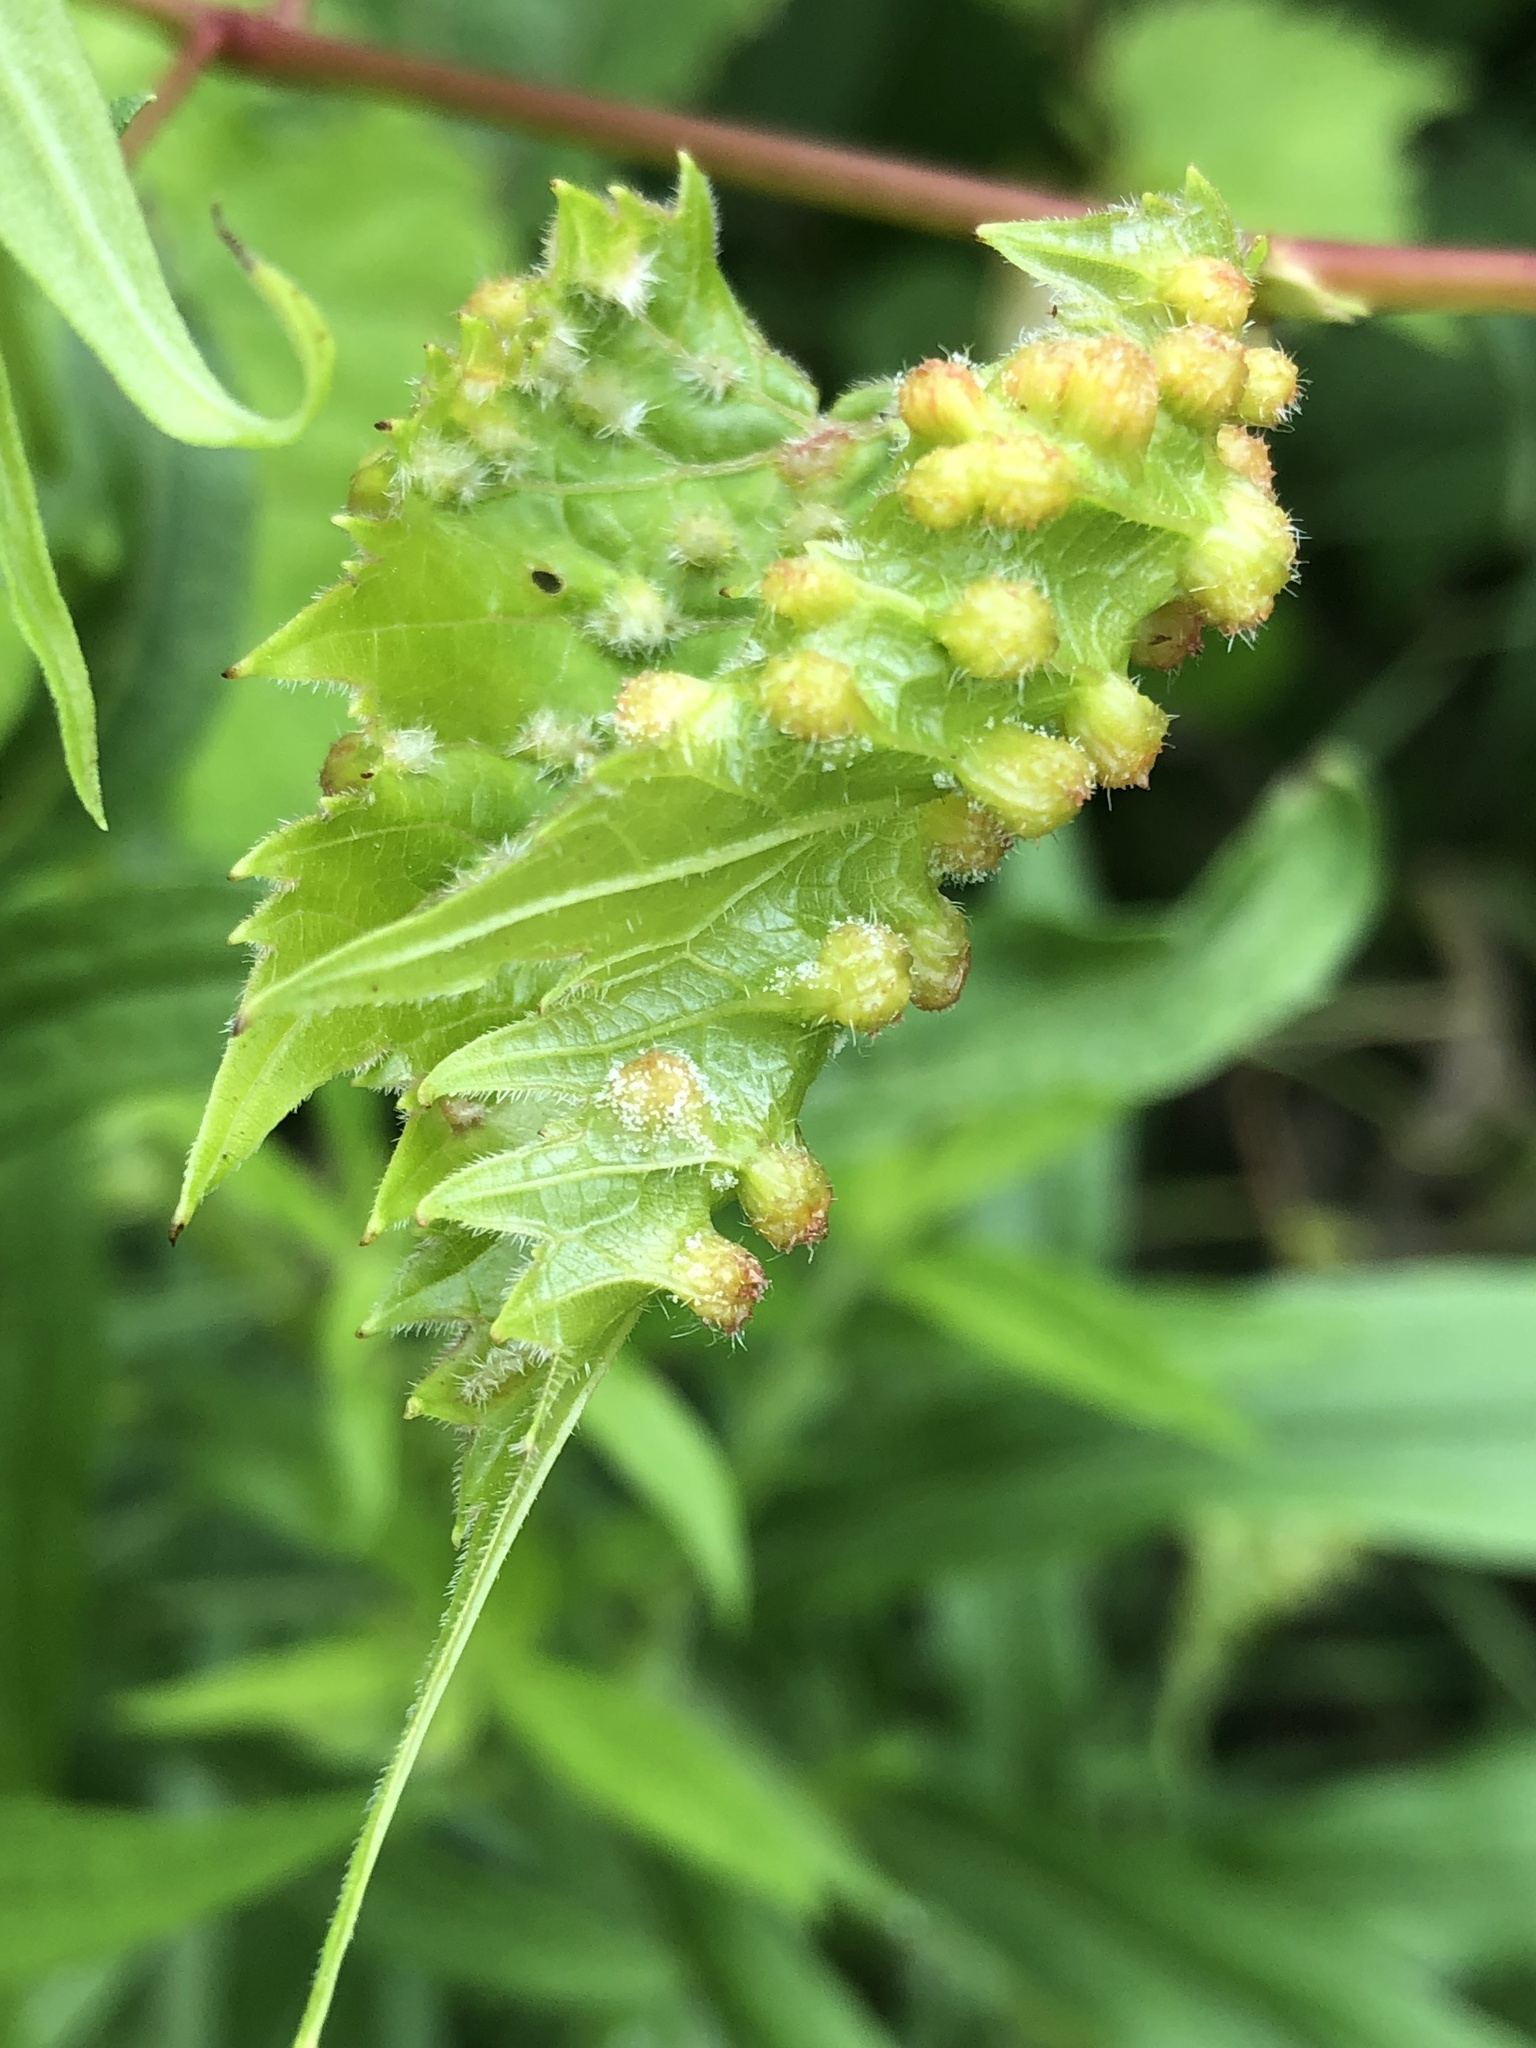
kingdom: Animalia
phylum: Arthropoda
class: Insecta
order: Hemiptera
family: Phylloxeridae
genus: Daktulosphaira
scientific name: Daktulosphaira vitifoliae
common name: Grape phylloxera
